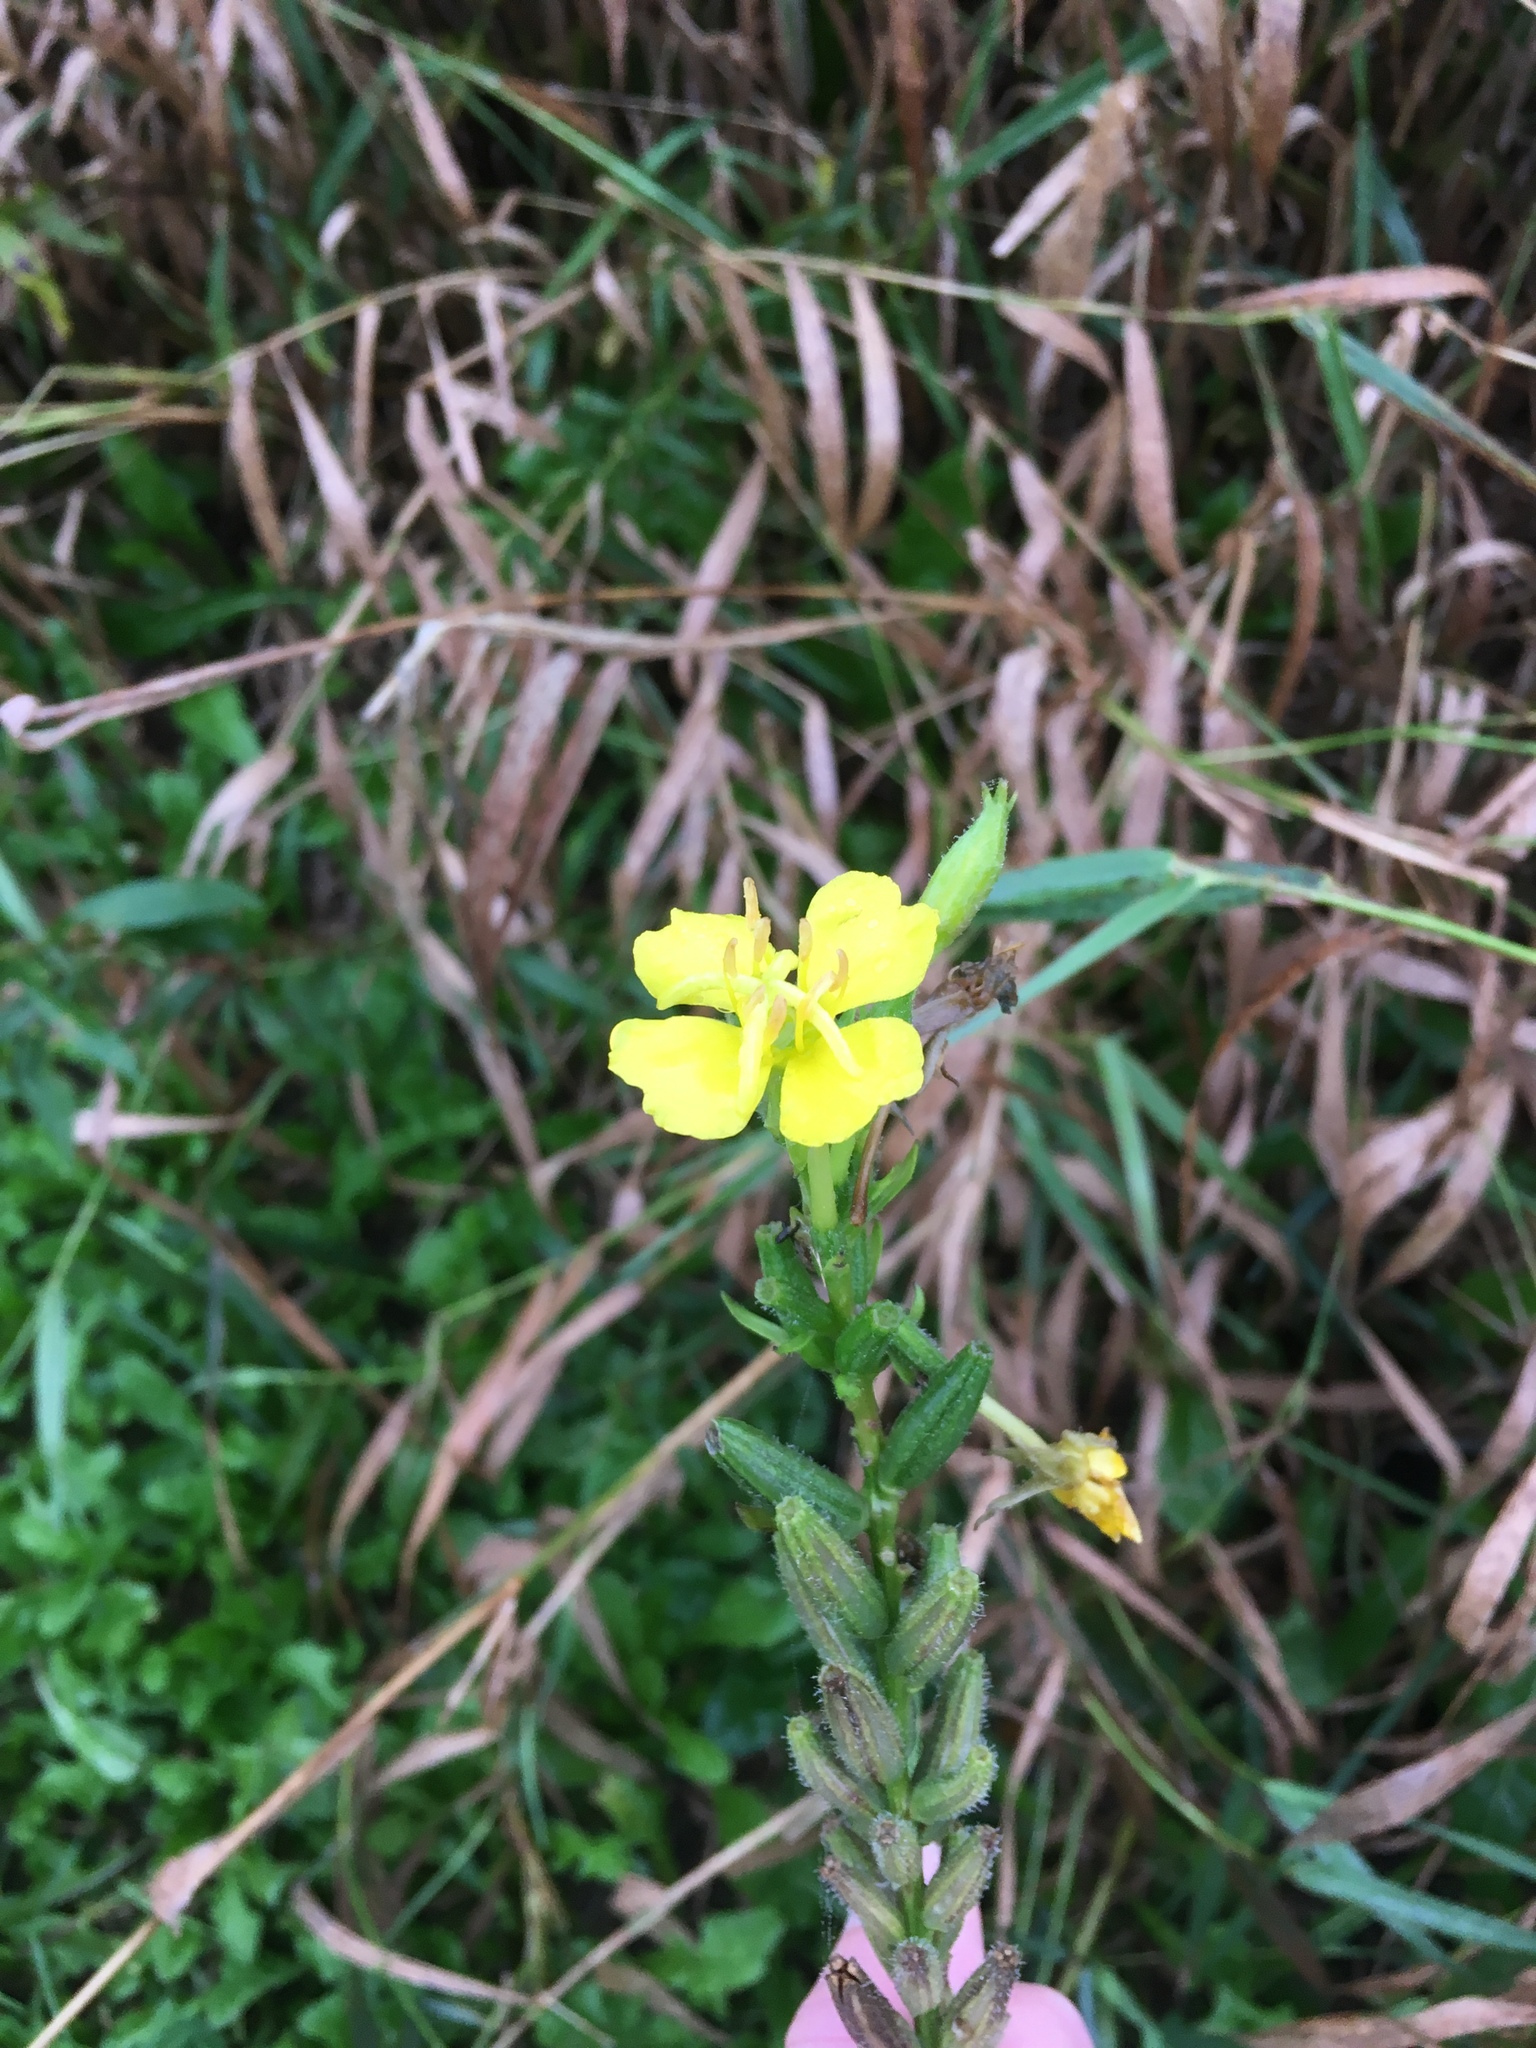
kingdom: Plantae
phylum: Tracheophyta
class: Magnoliopsida
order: Myrtales
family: Onagraceae
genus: Oenothera
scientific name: Oenothera biennis
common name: Common evening-primrose
